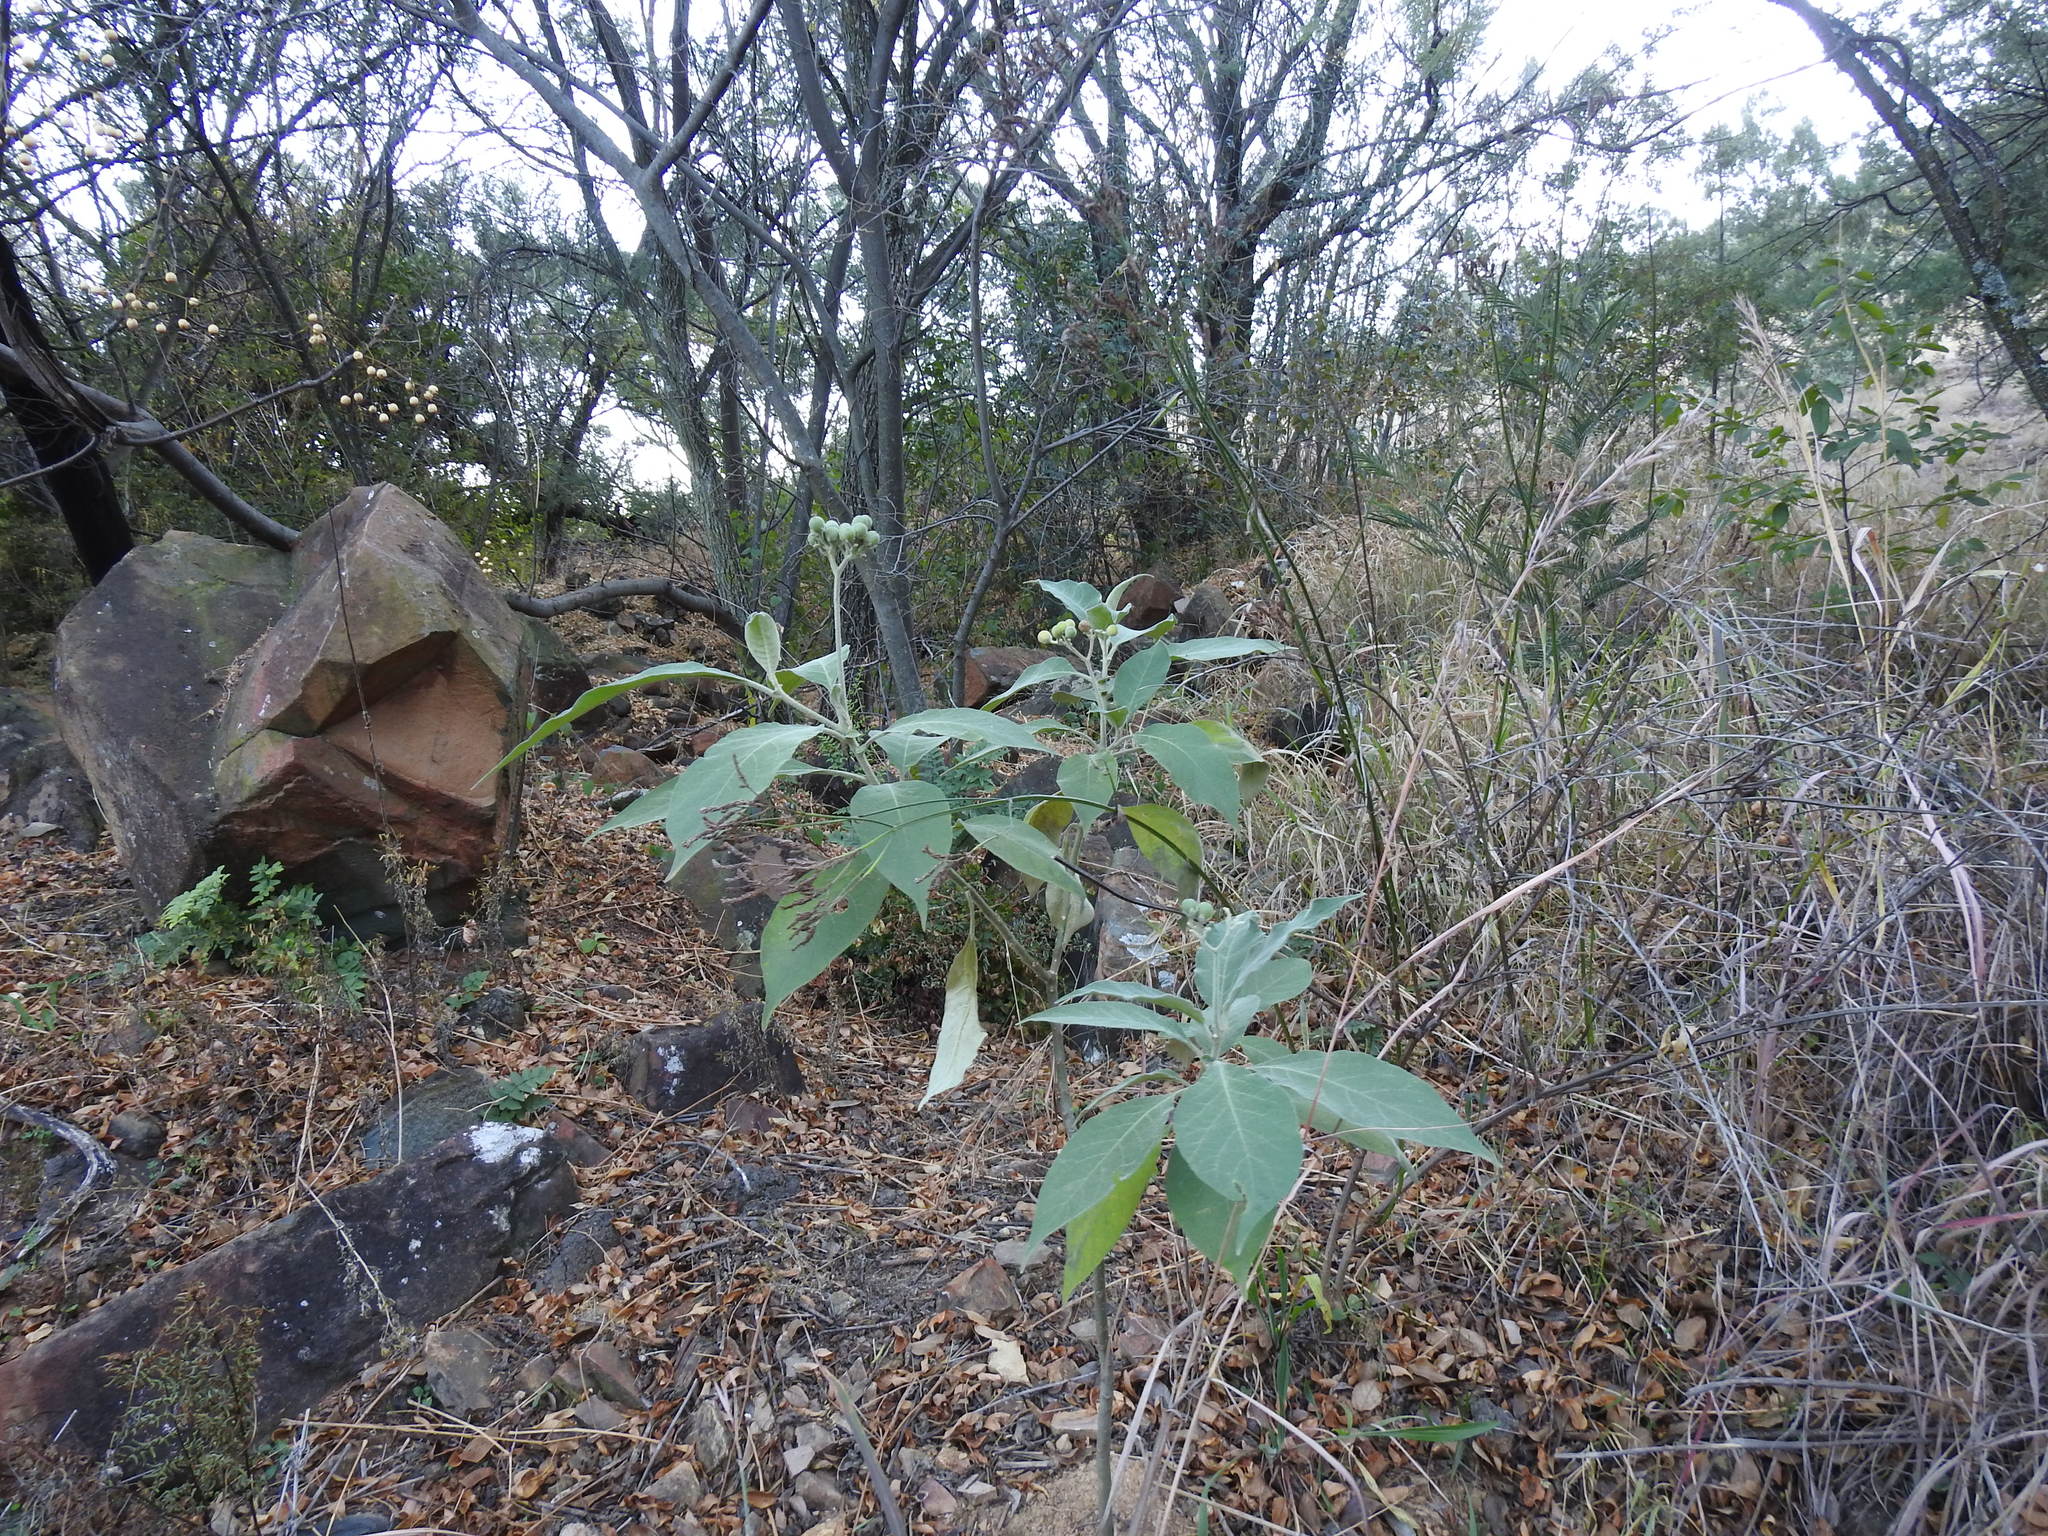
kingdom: Plantae
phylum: Tracheophyta
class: Magnoliopsida
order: Solanales
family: Solanaceae
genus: Solanum
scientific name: Solanum mauritianum
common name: Earleaf nightshade
